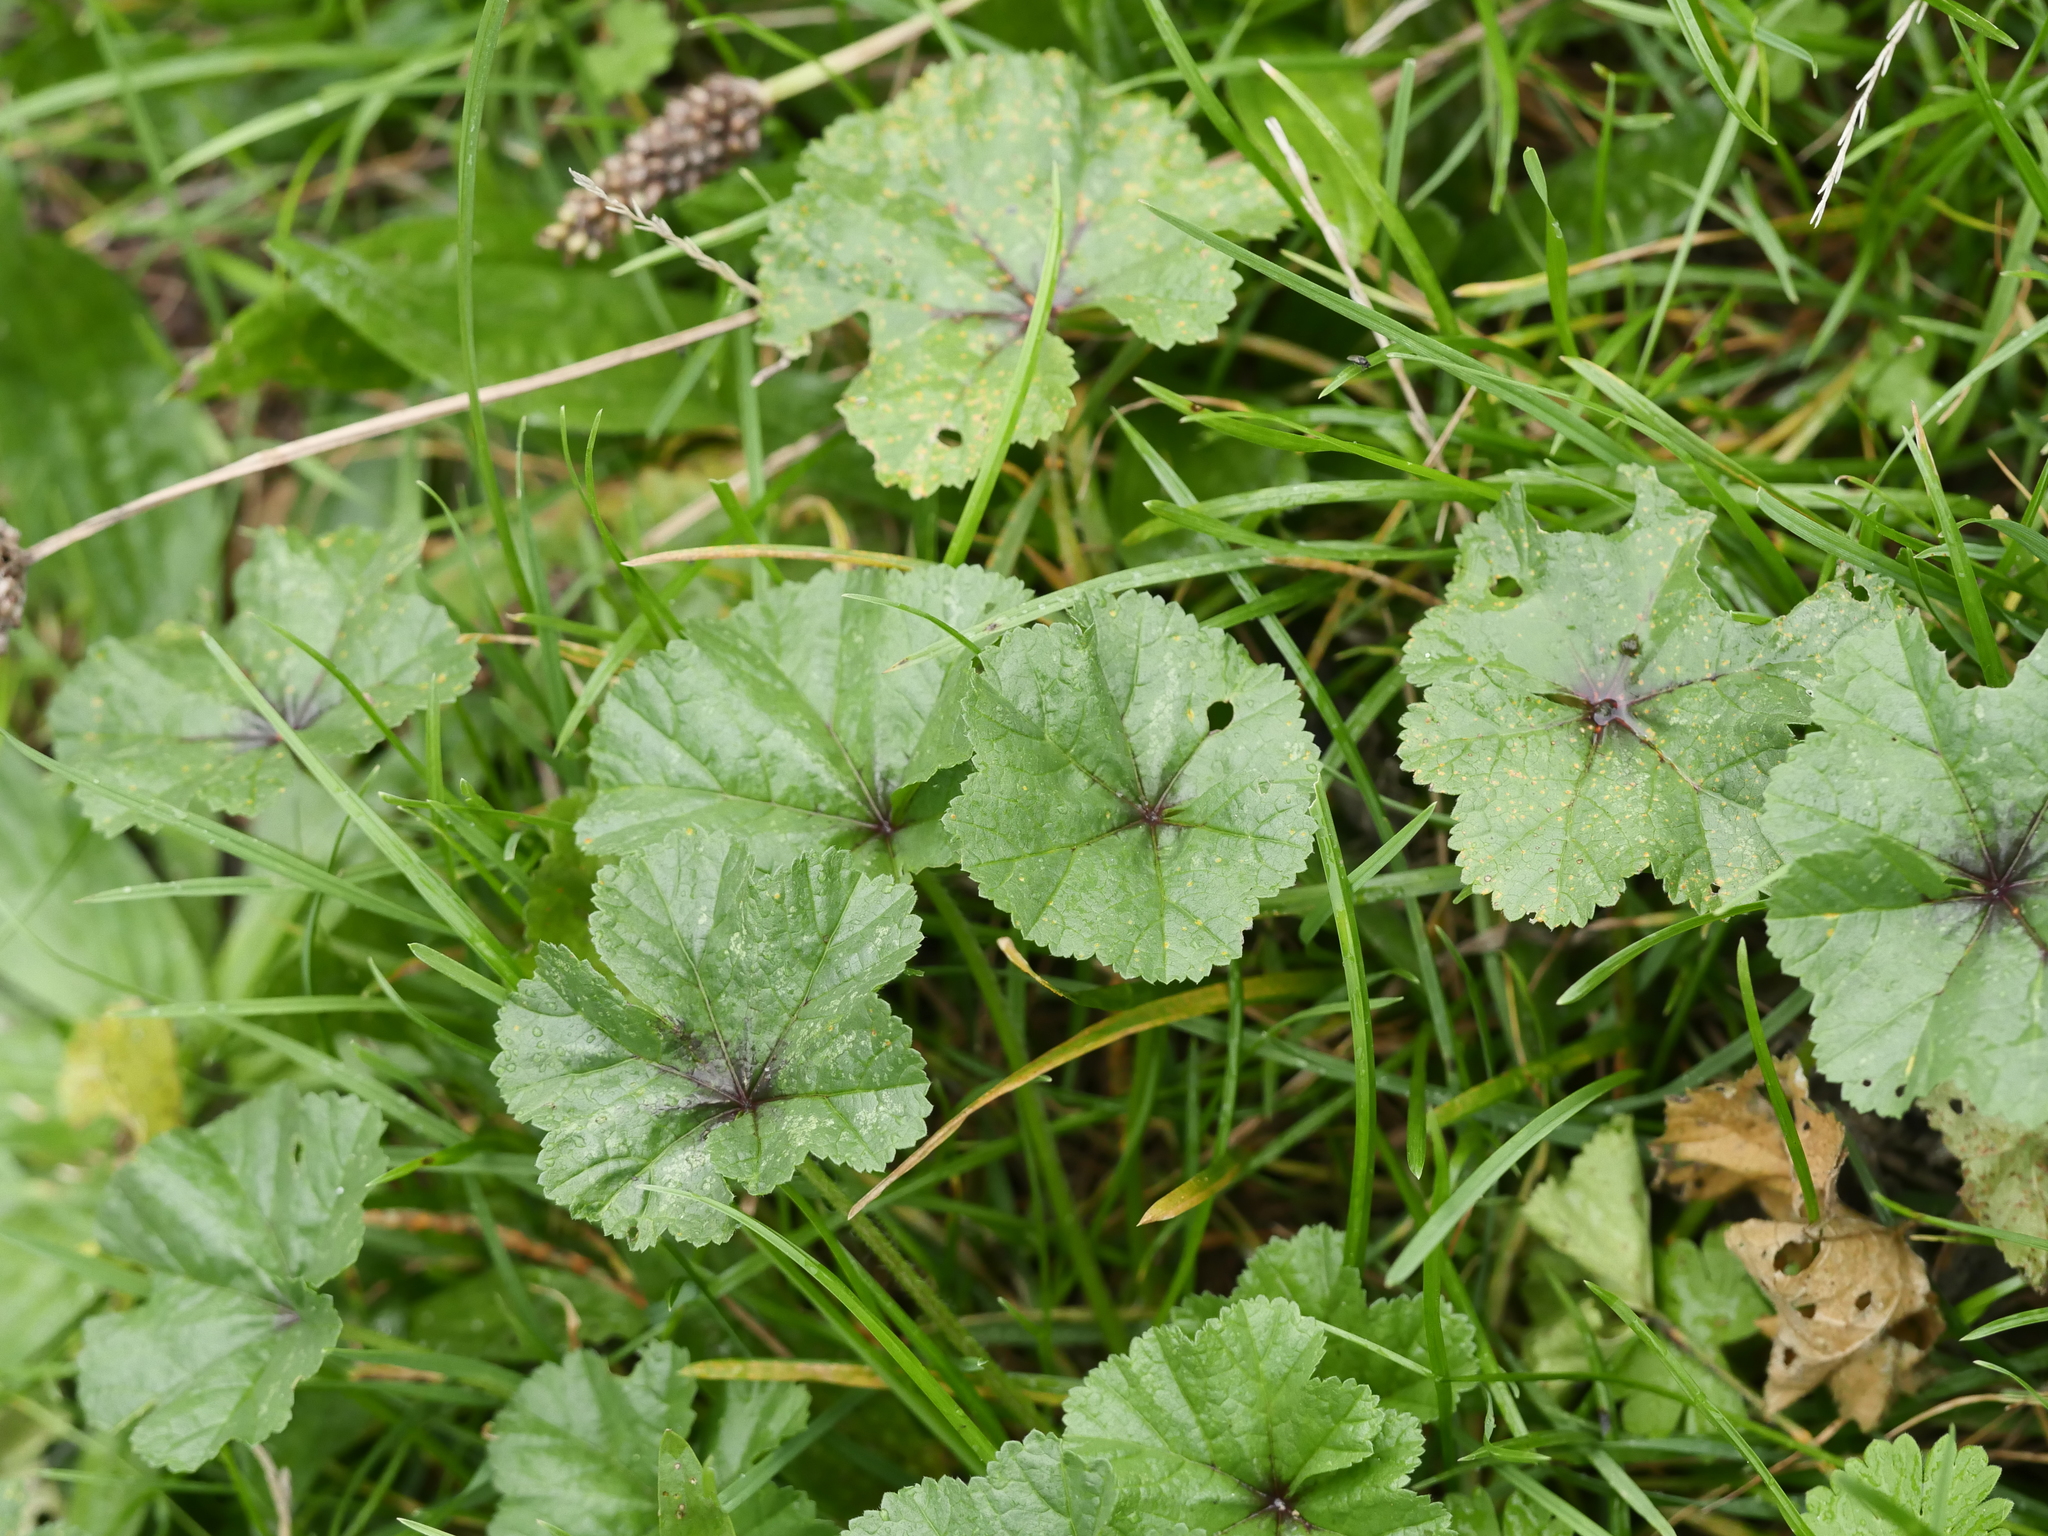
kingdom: Plantae
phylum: Tracheophyta
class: Magnoliopsida
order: Malvales
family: Malvaceae
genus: Malva
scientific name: Malva sylvestris
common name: Common mallow
